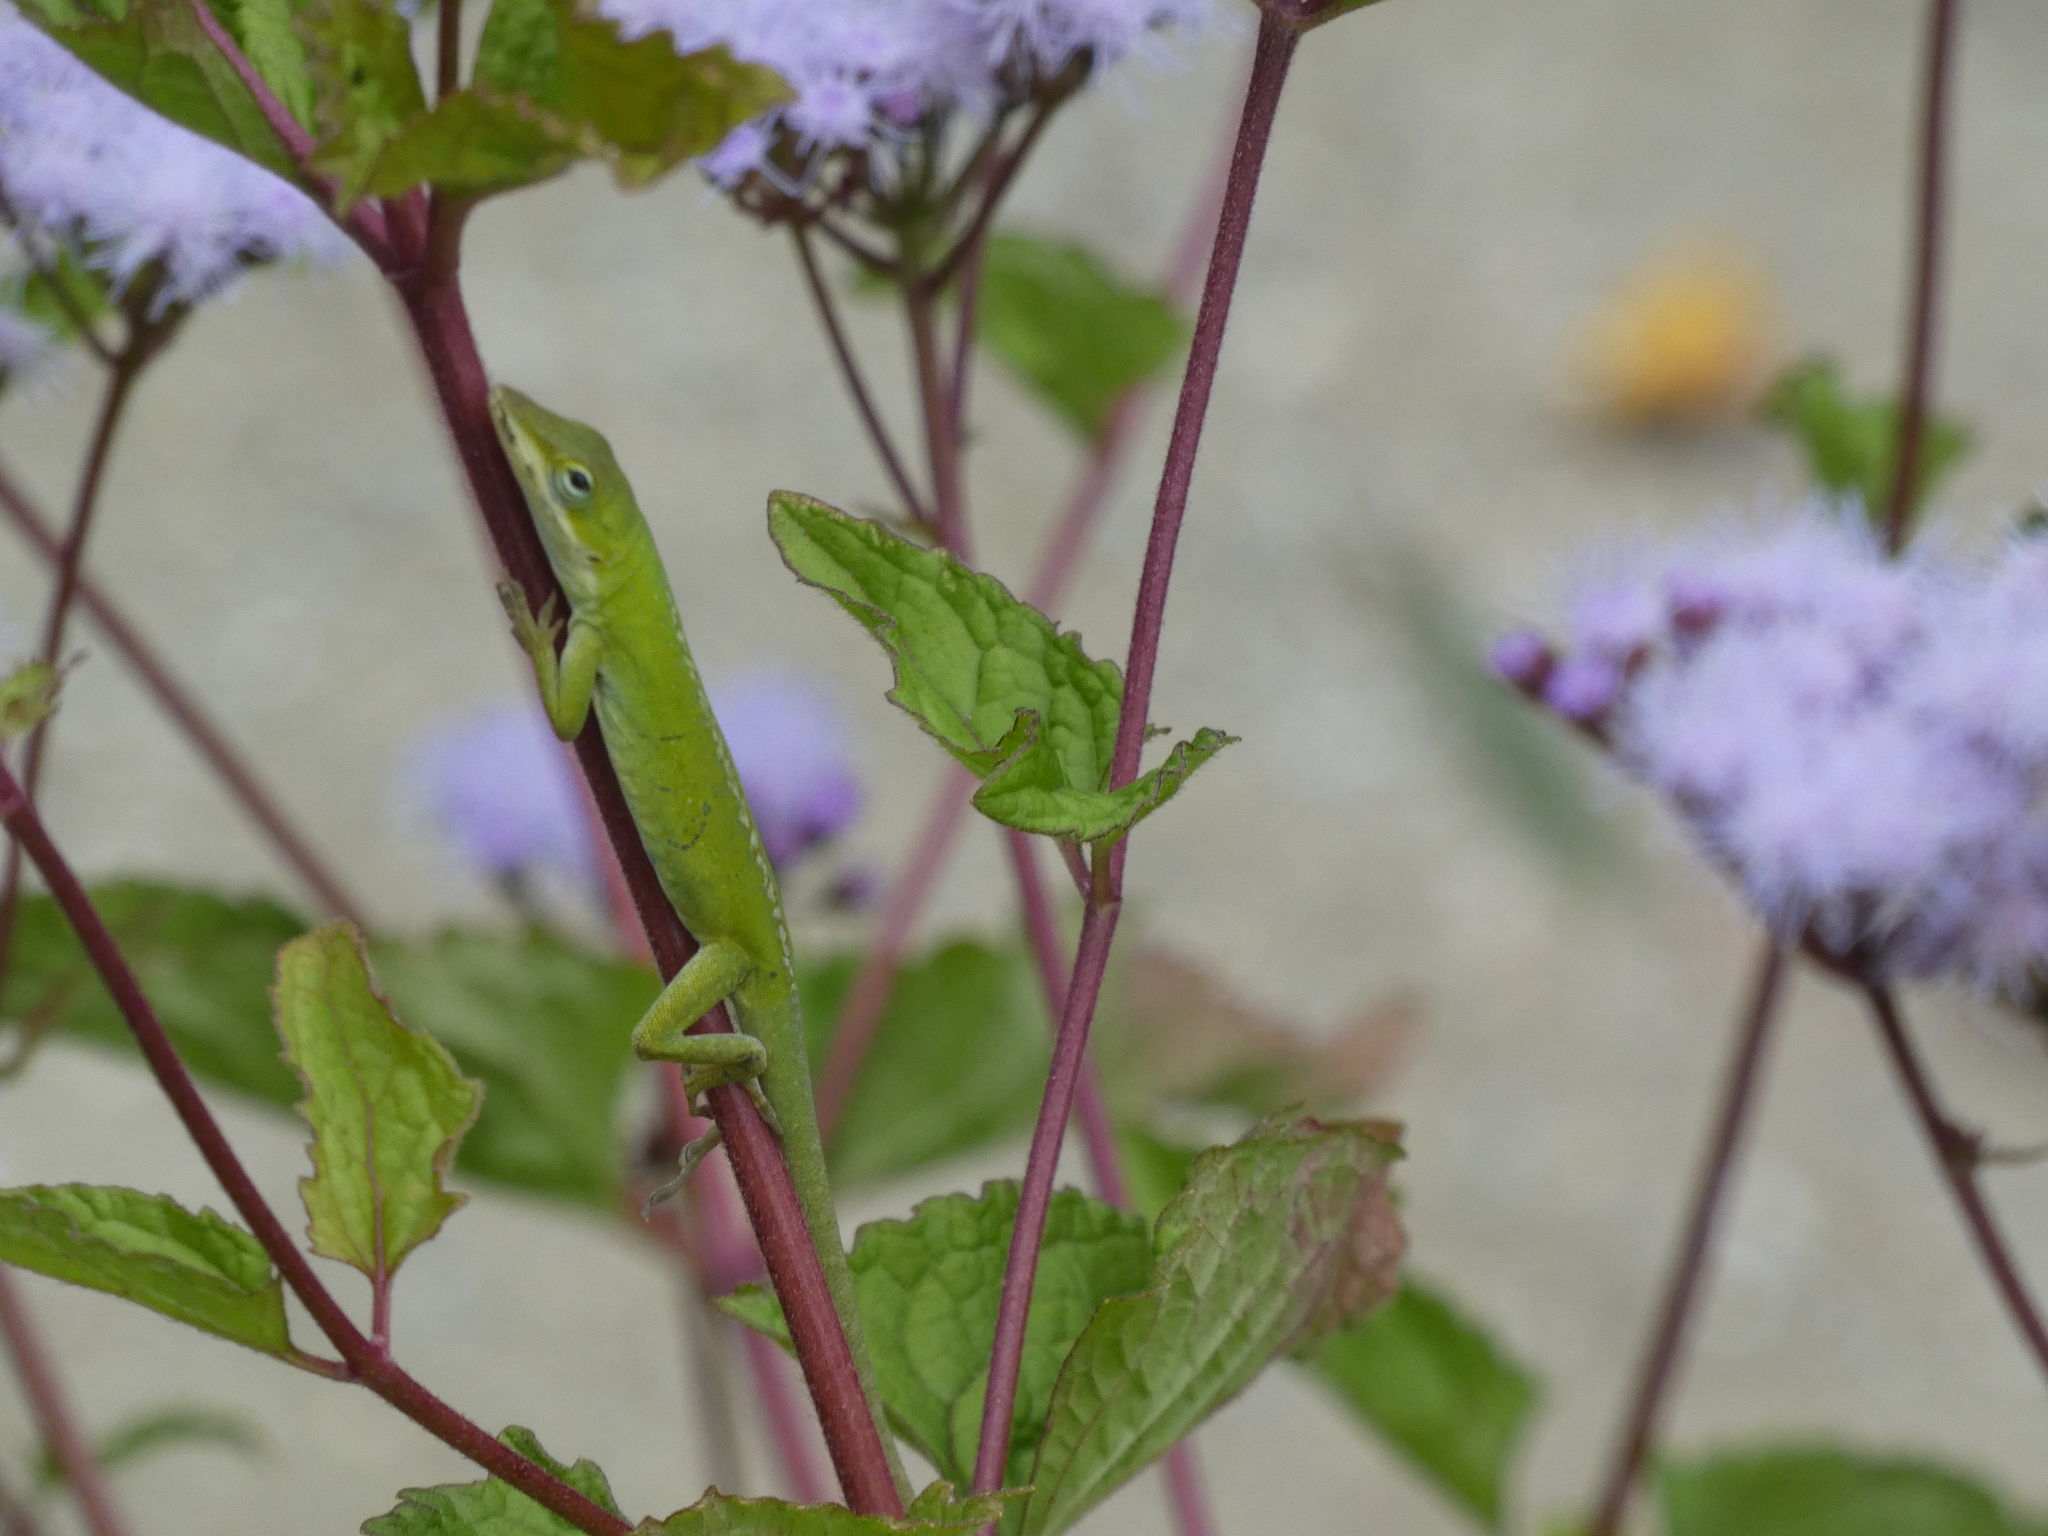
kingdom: Animalia
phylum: Chordata
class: Squamata
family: Dactyloidae
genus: Anolis
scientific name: Anolis carolinensis
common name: Green anole
